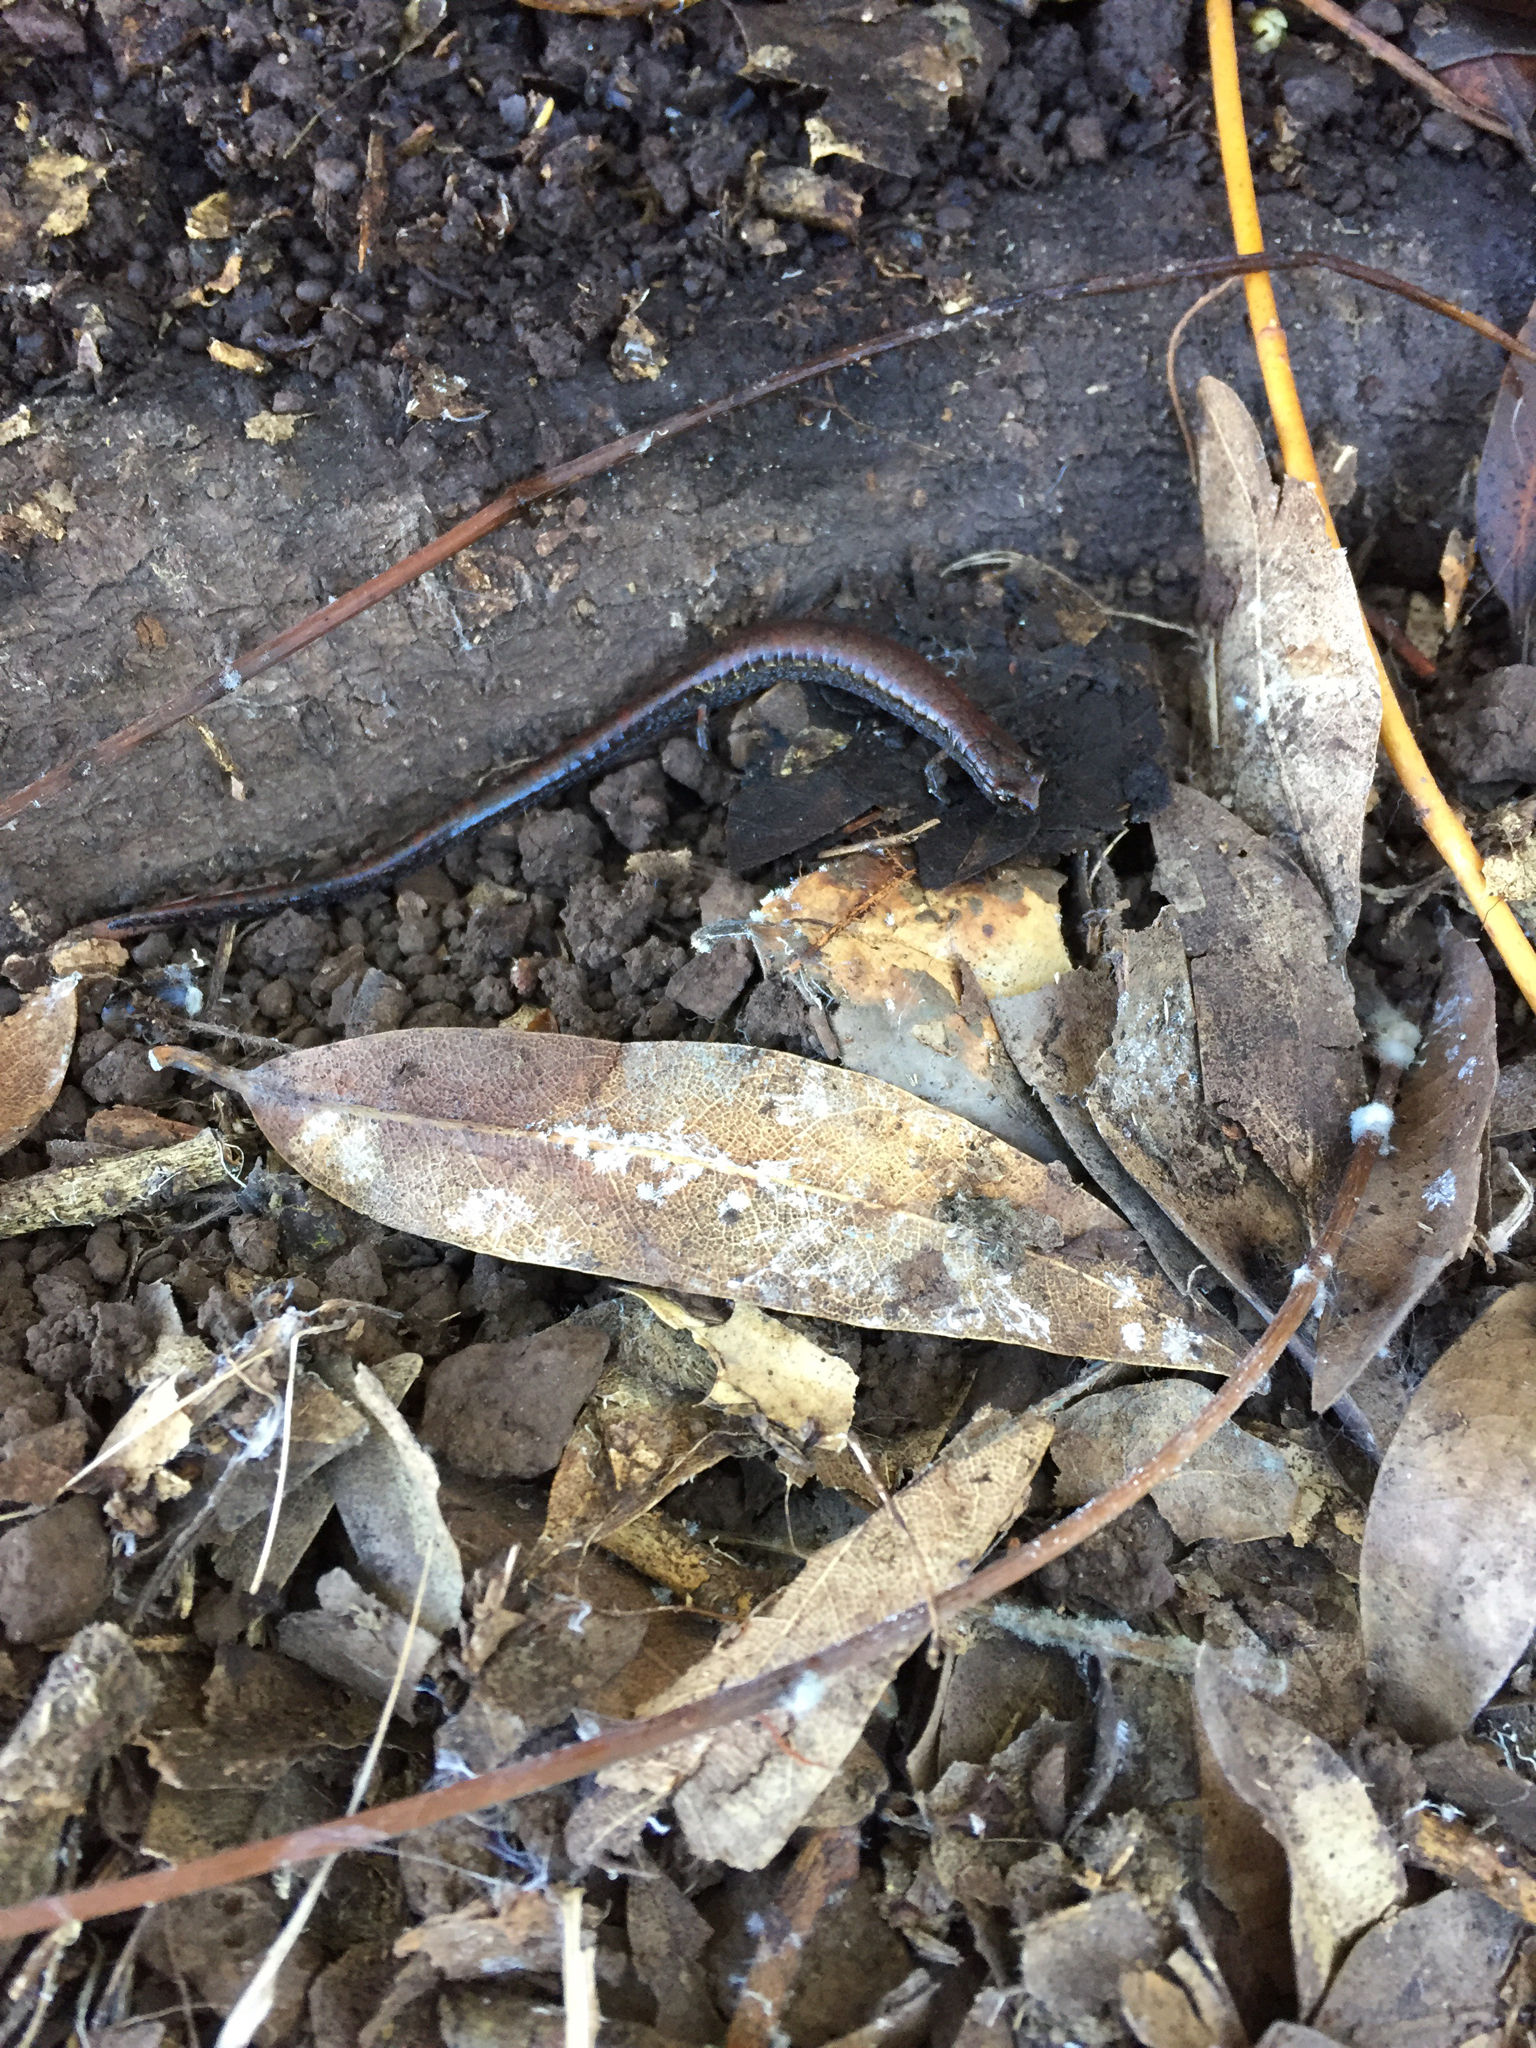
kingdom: Animalia
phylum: Chordata
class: Amphibia
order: Caudata
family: Plethodontidae
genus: Batrachoseps
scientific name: Batrachoseps attenuatus
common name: California slender salamander
